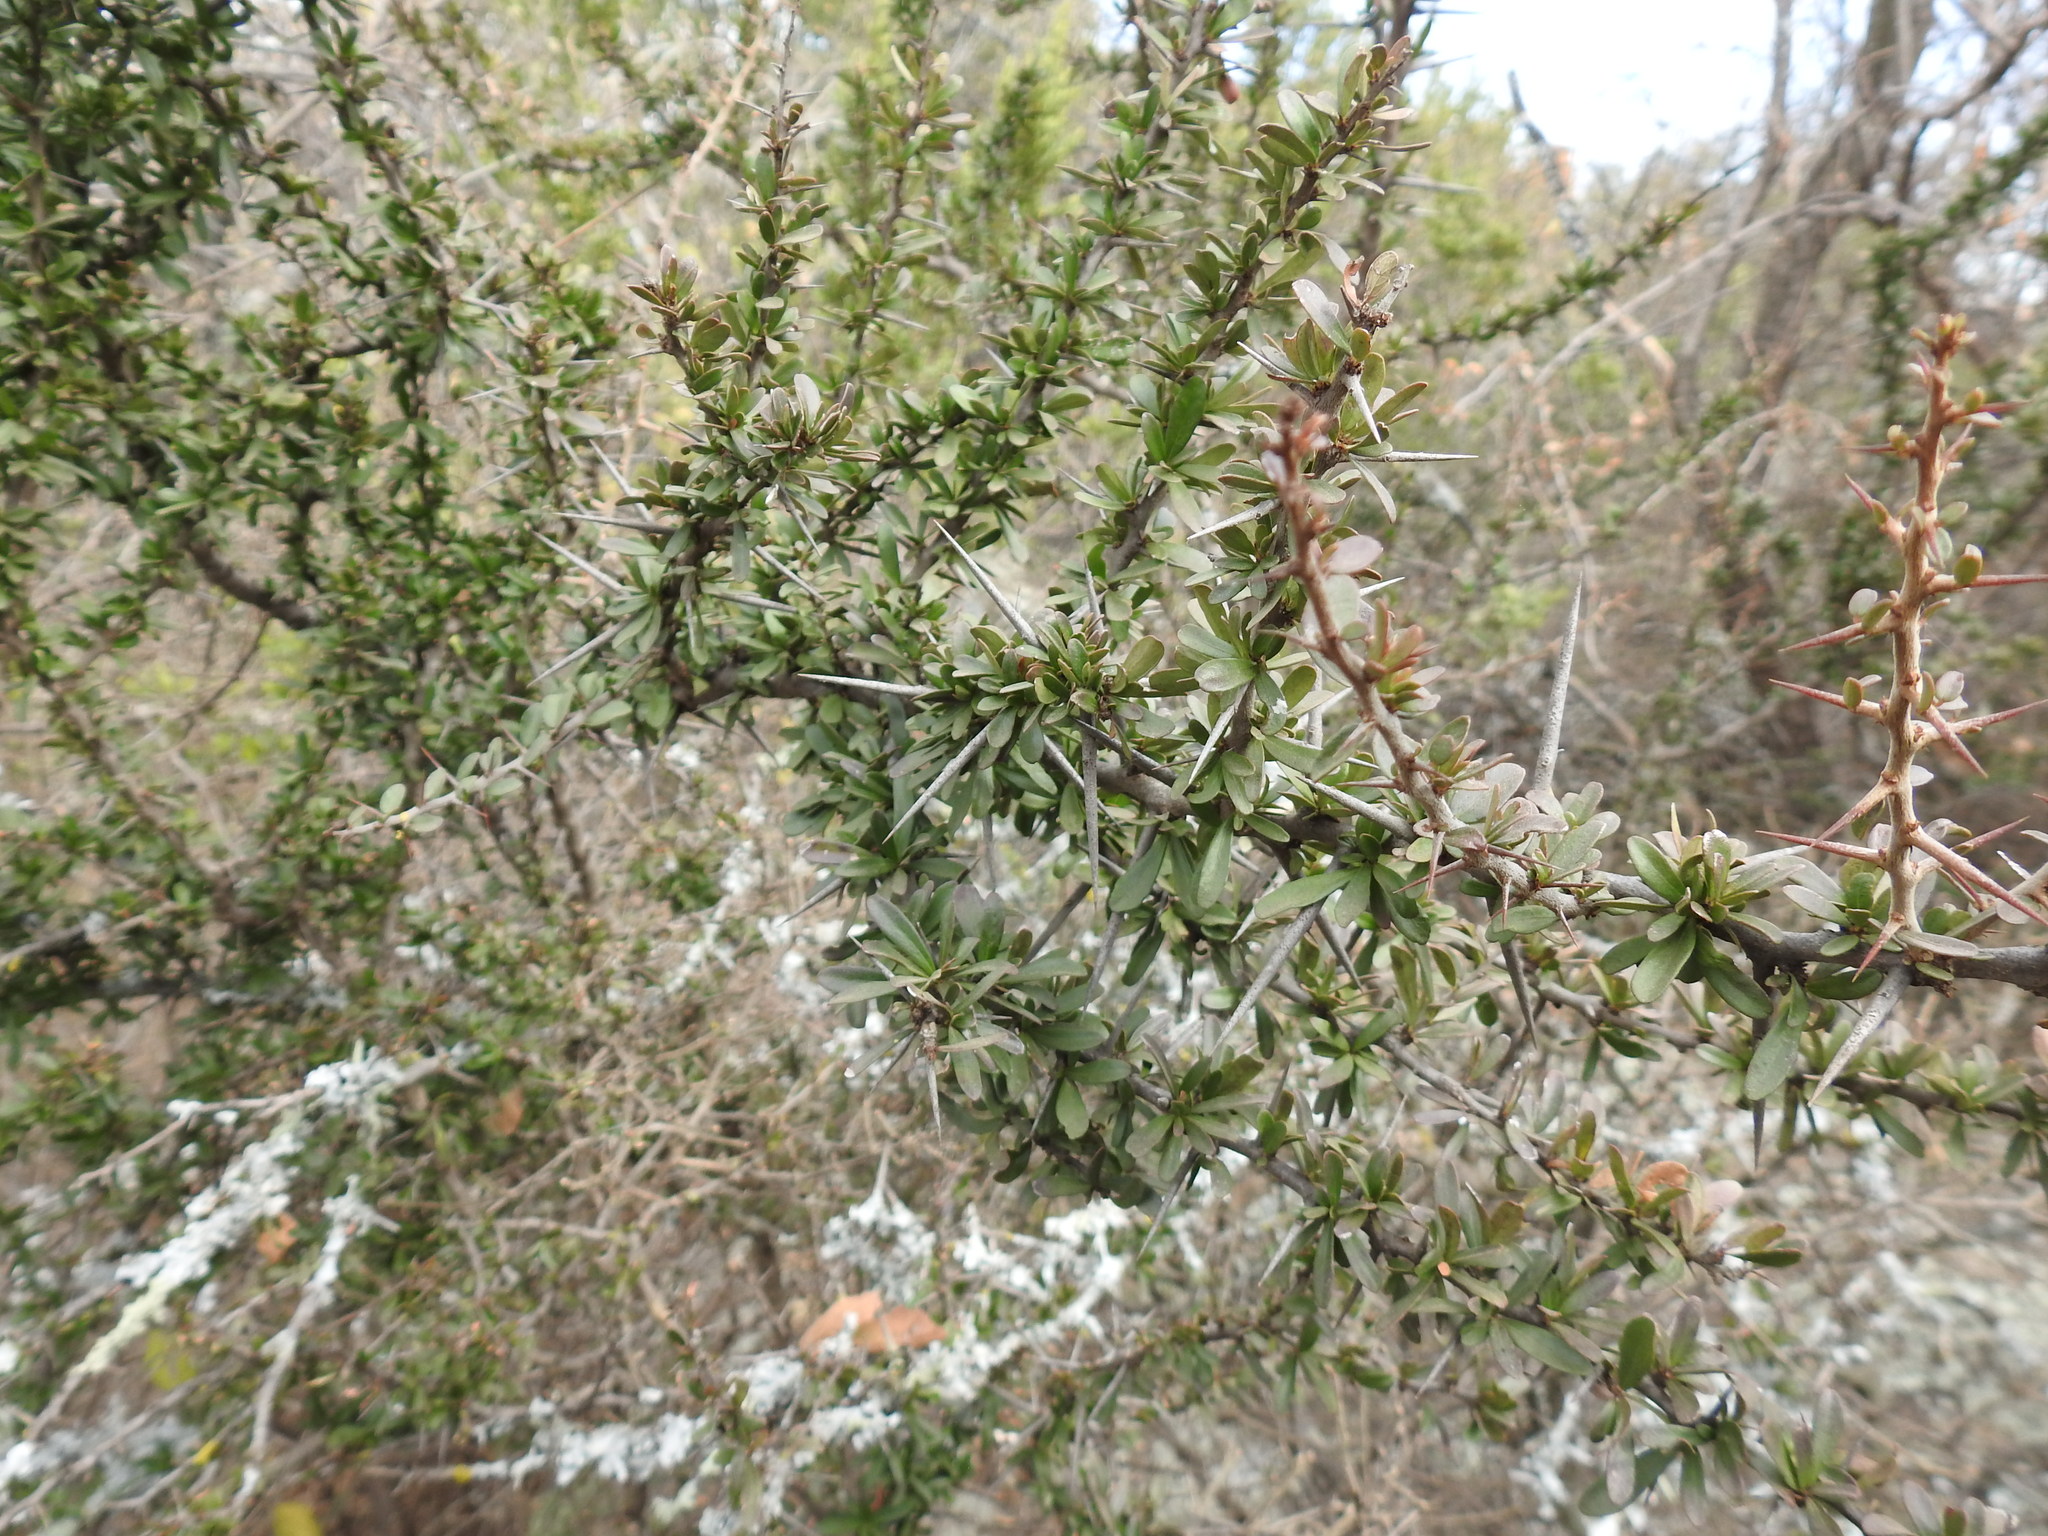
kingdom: Plantae
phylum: Tracheophyta
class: Magnoliopsida
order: Celastrales
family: Celastraceae
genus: Gymnosporia
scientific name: Gymnosporia polyacantha
